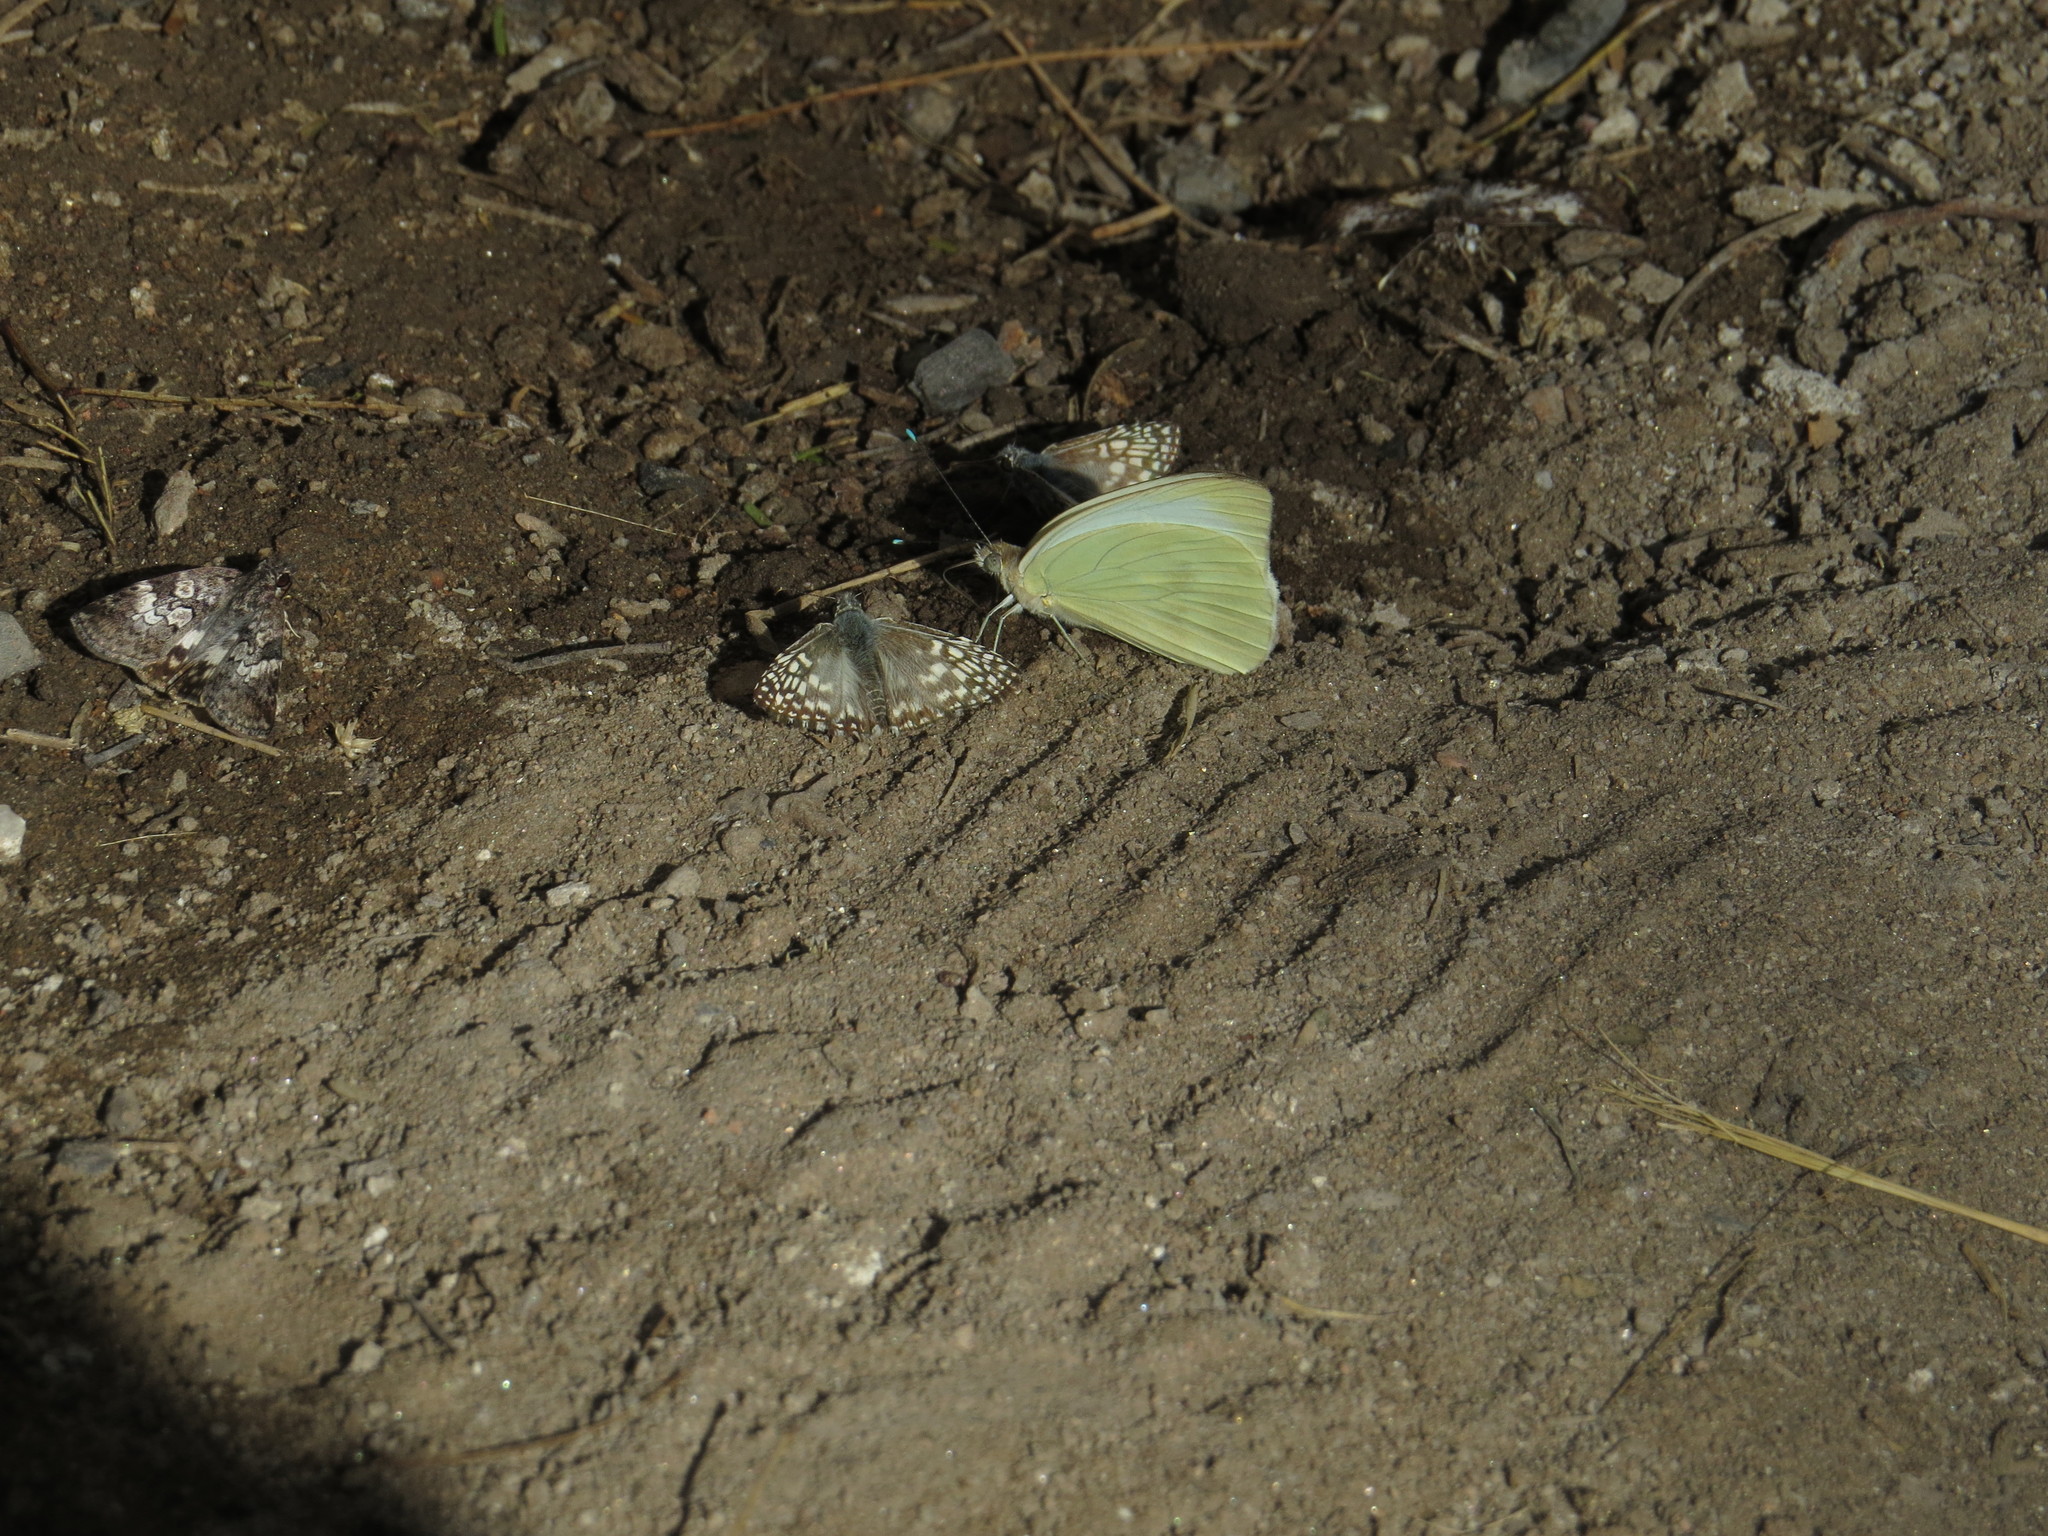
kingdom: Animalia
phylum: Arthropoda
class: Insecta
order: Lepidoptera
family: Pieridae
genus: Ascia
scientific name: Ascia monuste
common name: Great southern white
